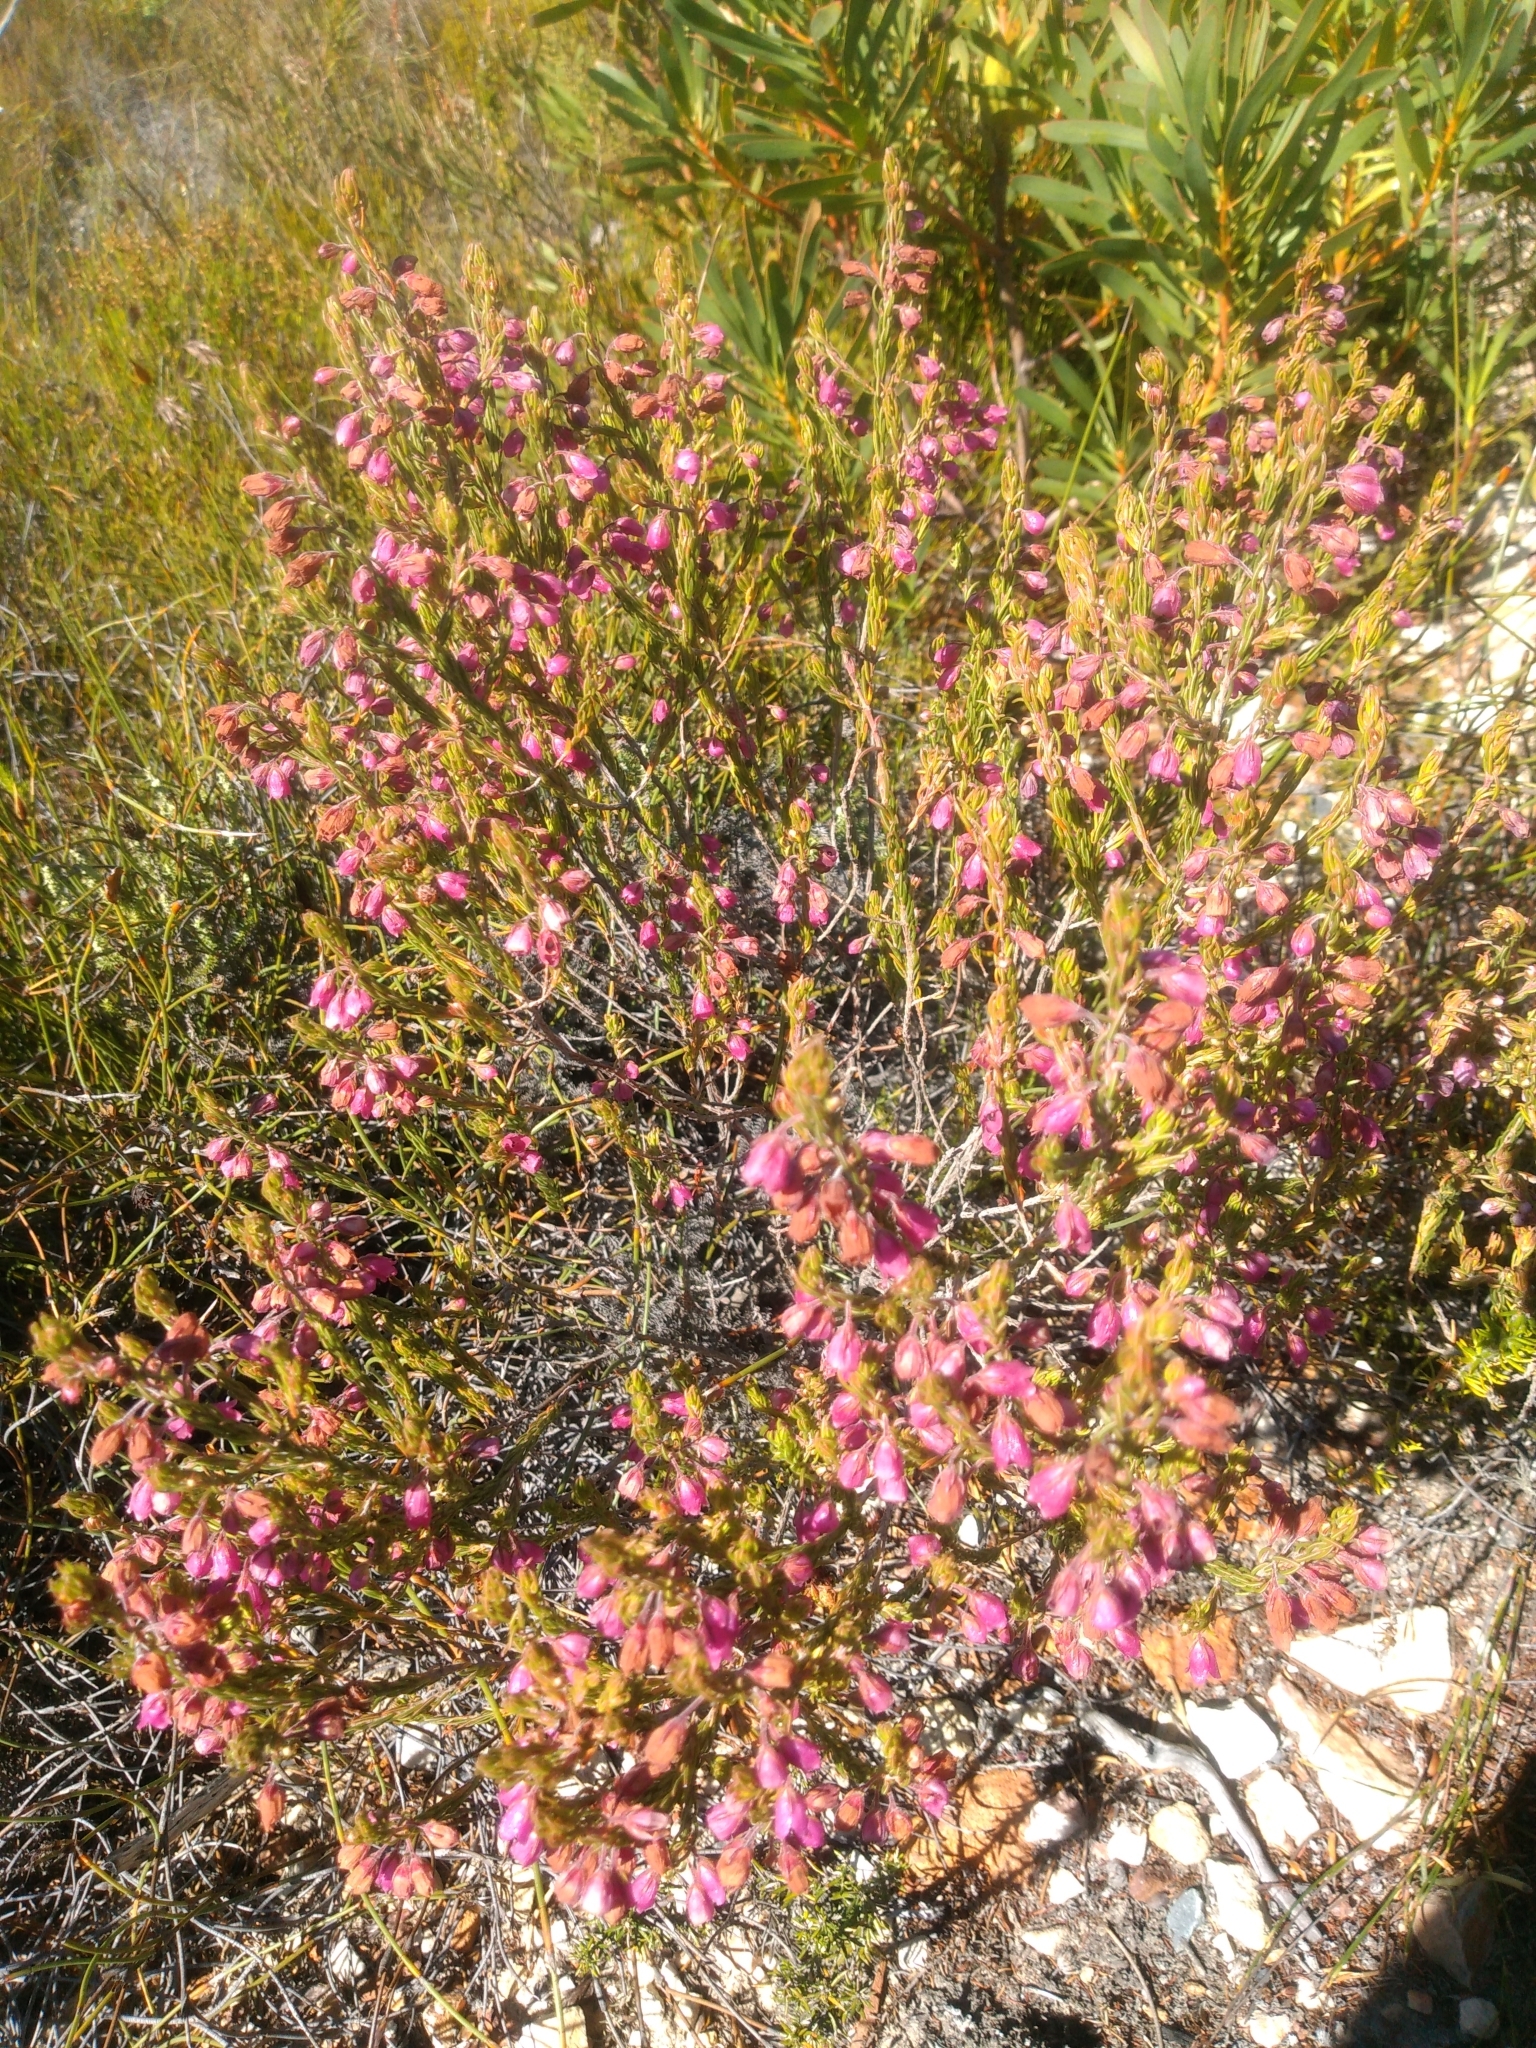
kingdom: Plantae
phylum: Tracheophyta
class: Magnoliopsida
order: Ericales
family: Ericaceae
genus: Erica
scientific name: Erica viscaria
